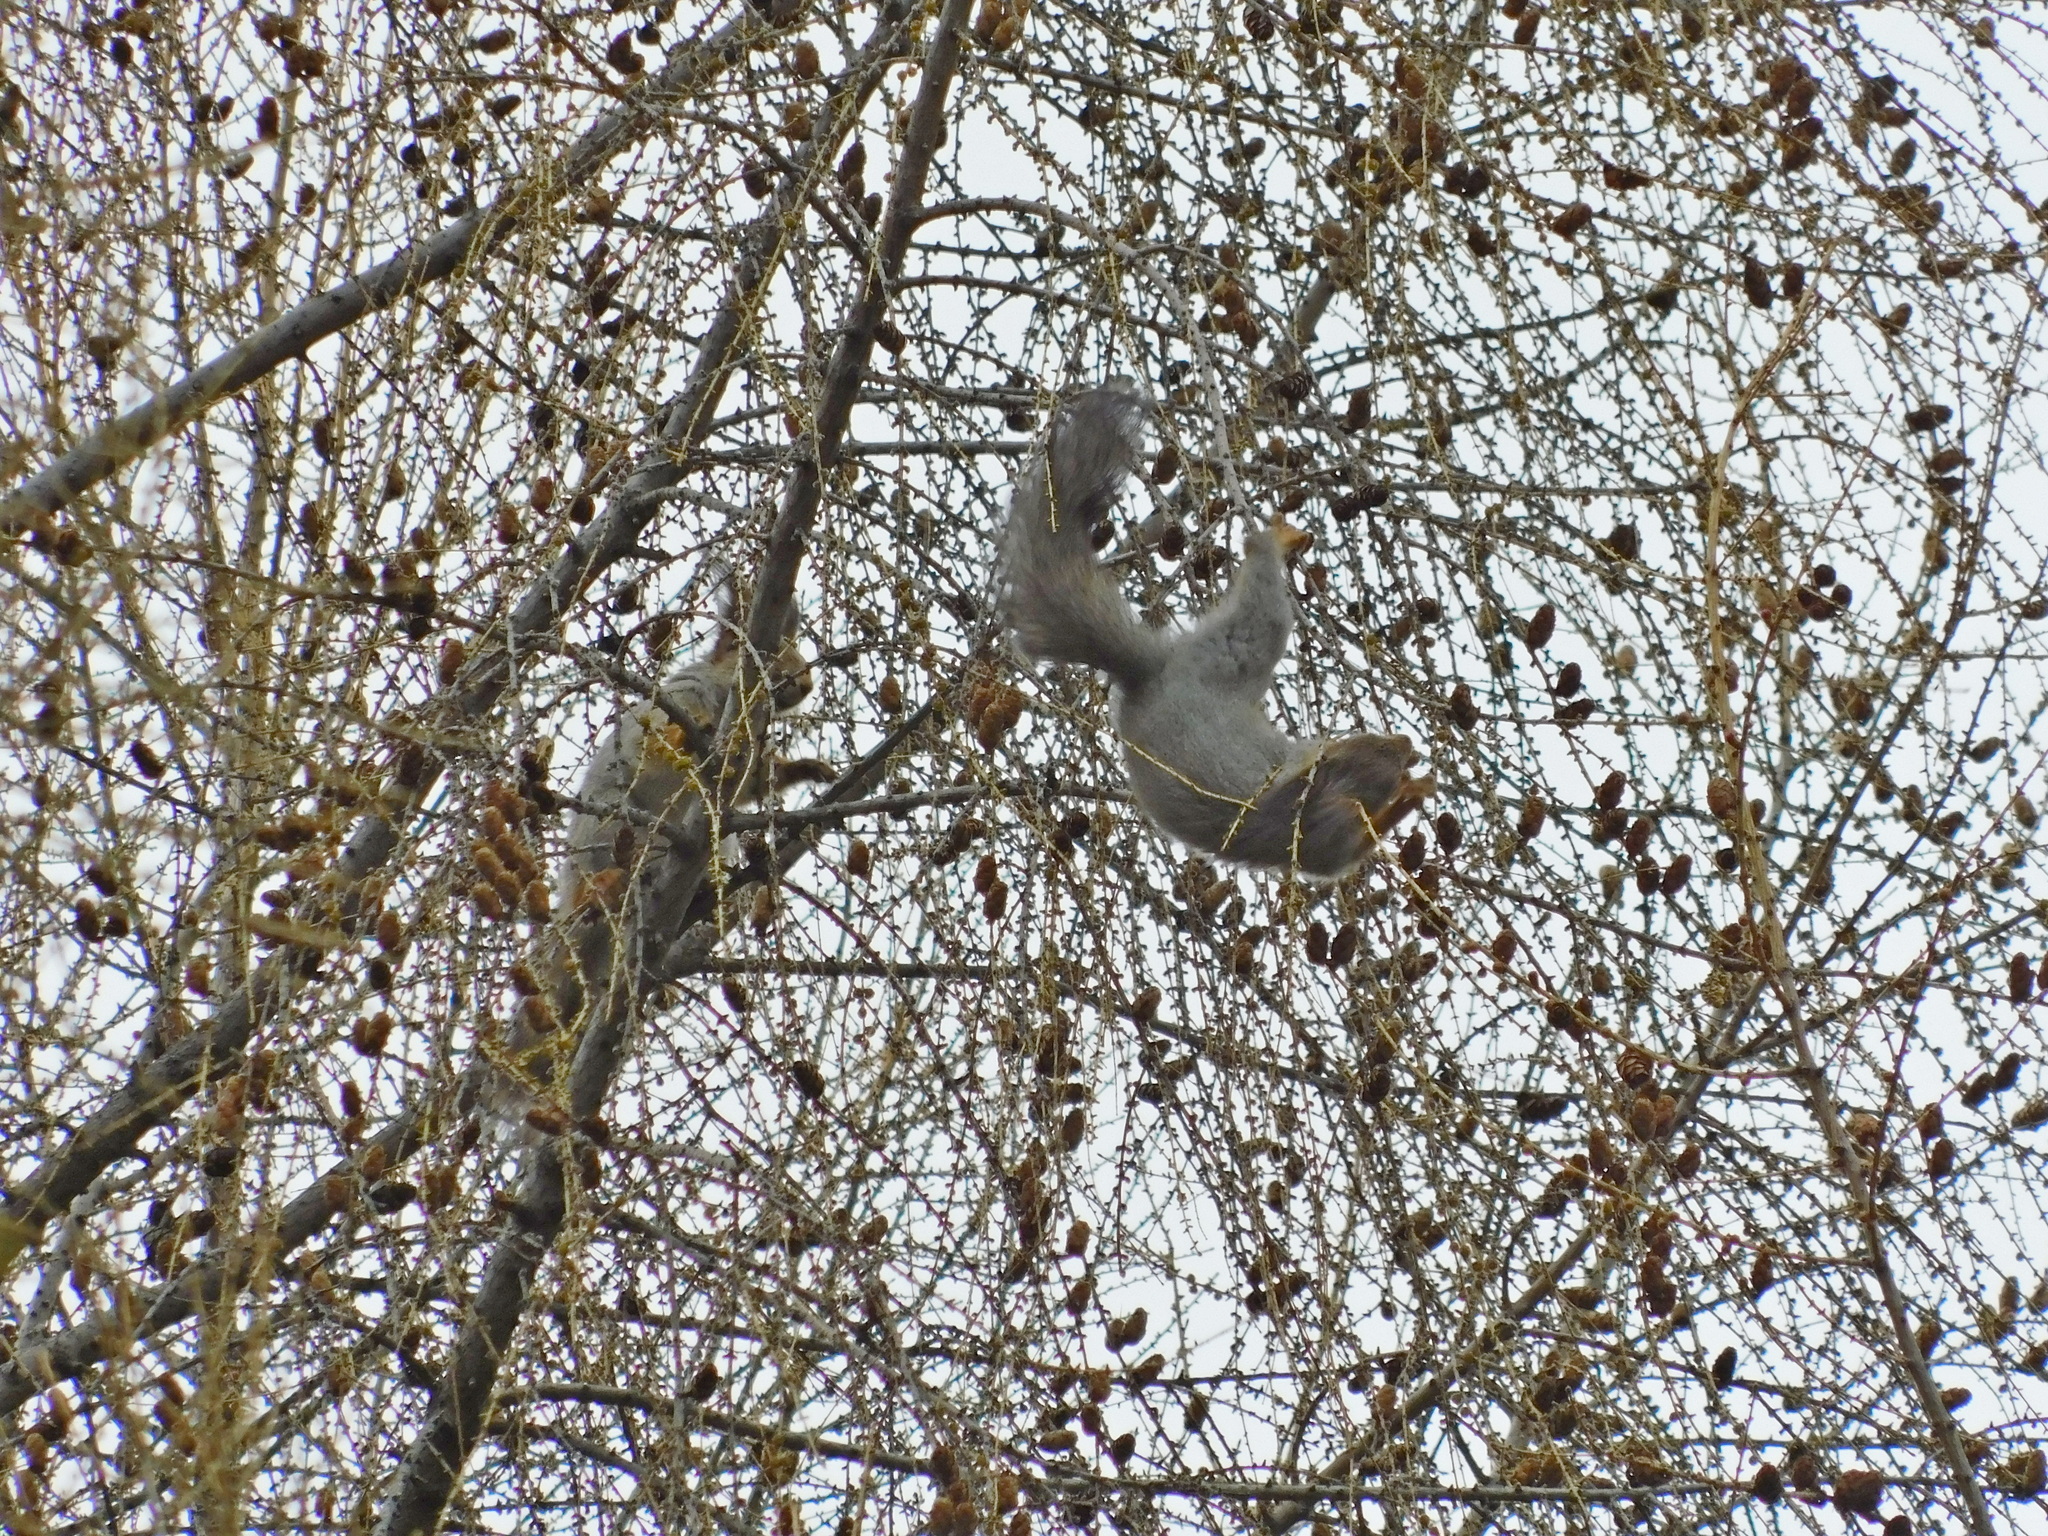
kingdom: Animalia
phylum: Chordata
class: Mammalia
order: Rodentia
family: Sciuridae
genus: Sciurus
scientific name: Sciurus vulgaris
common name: Eurasian red squirrel
